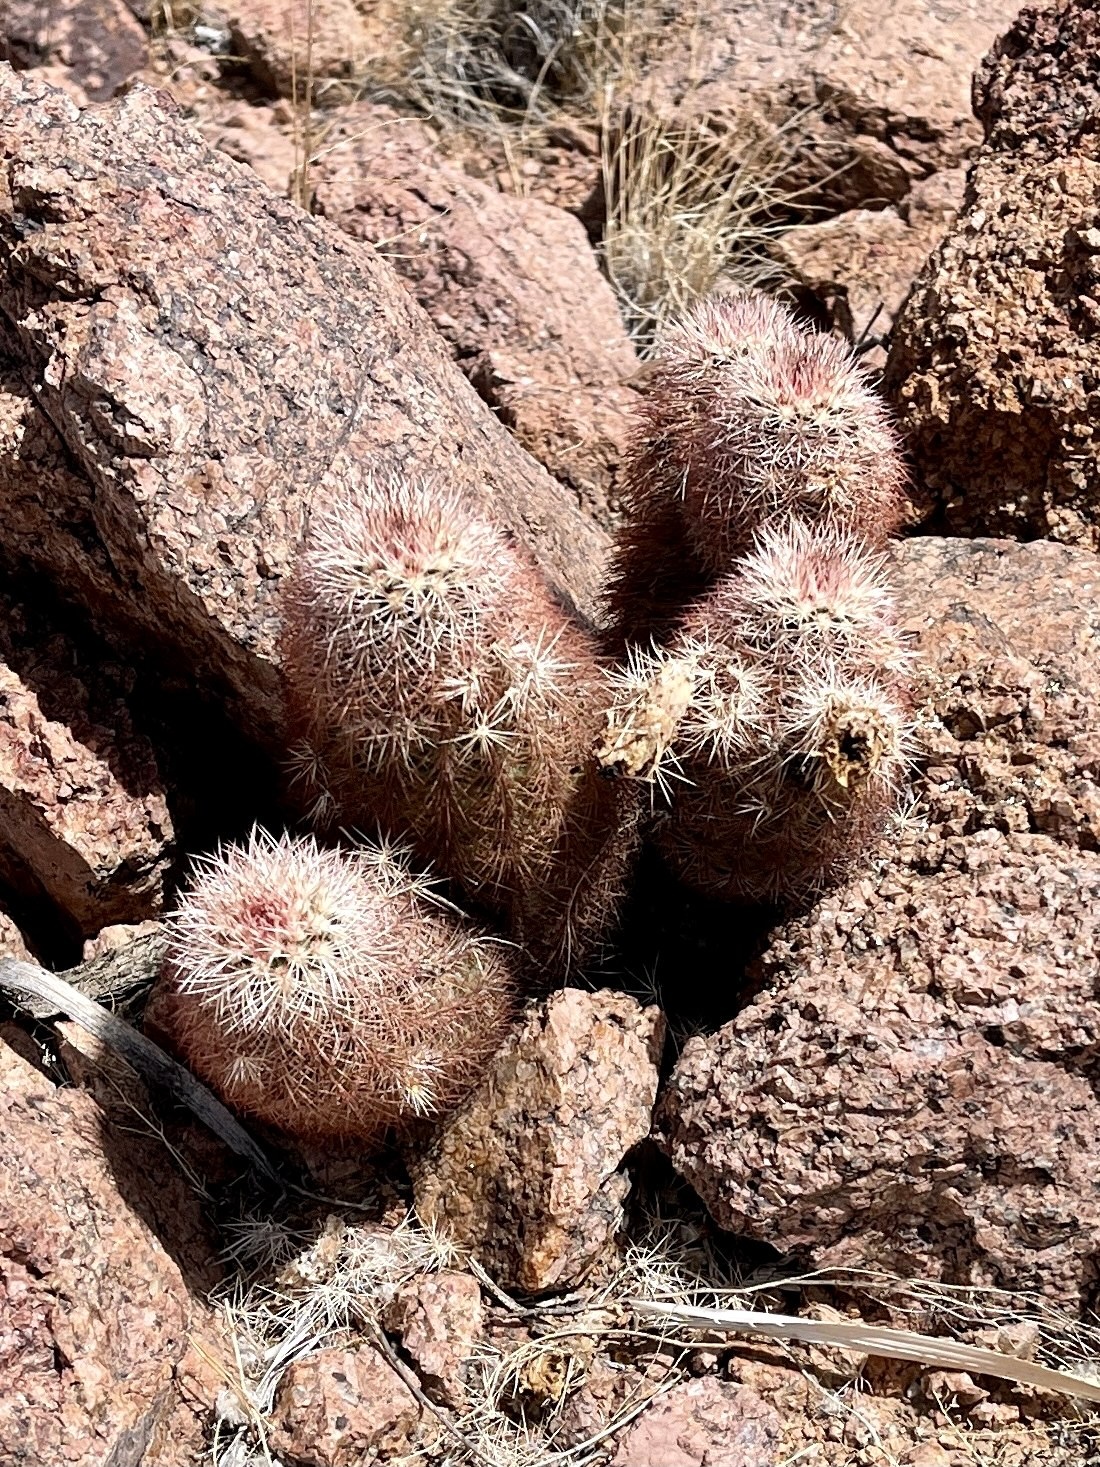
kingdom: Plantae
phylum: Tracheophyta
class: Magnoliopsida
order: Caryophyllales
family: Cactaceae
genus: Echinocereus
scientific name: Echinocereus dasyacanthus
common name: Spiny hedgehog cactus
